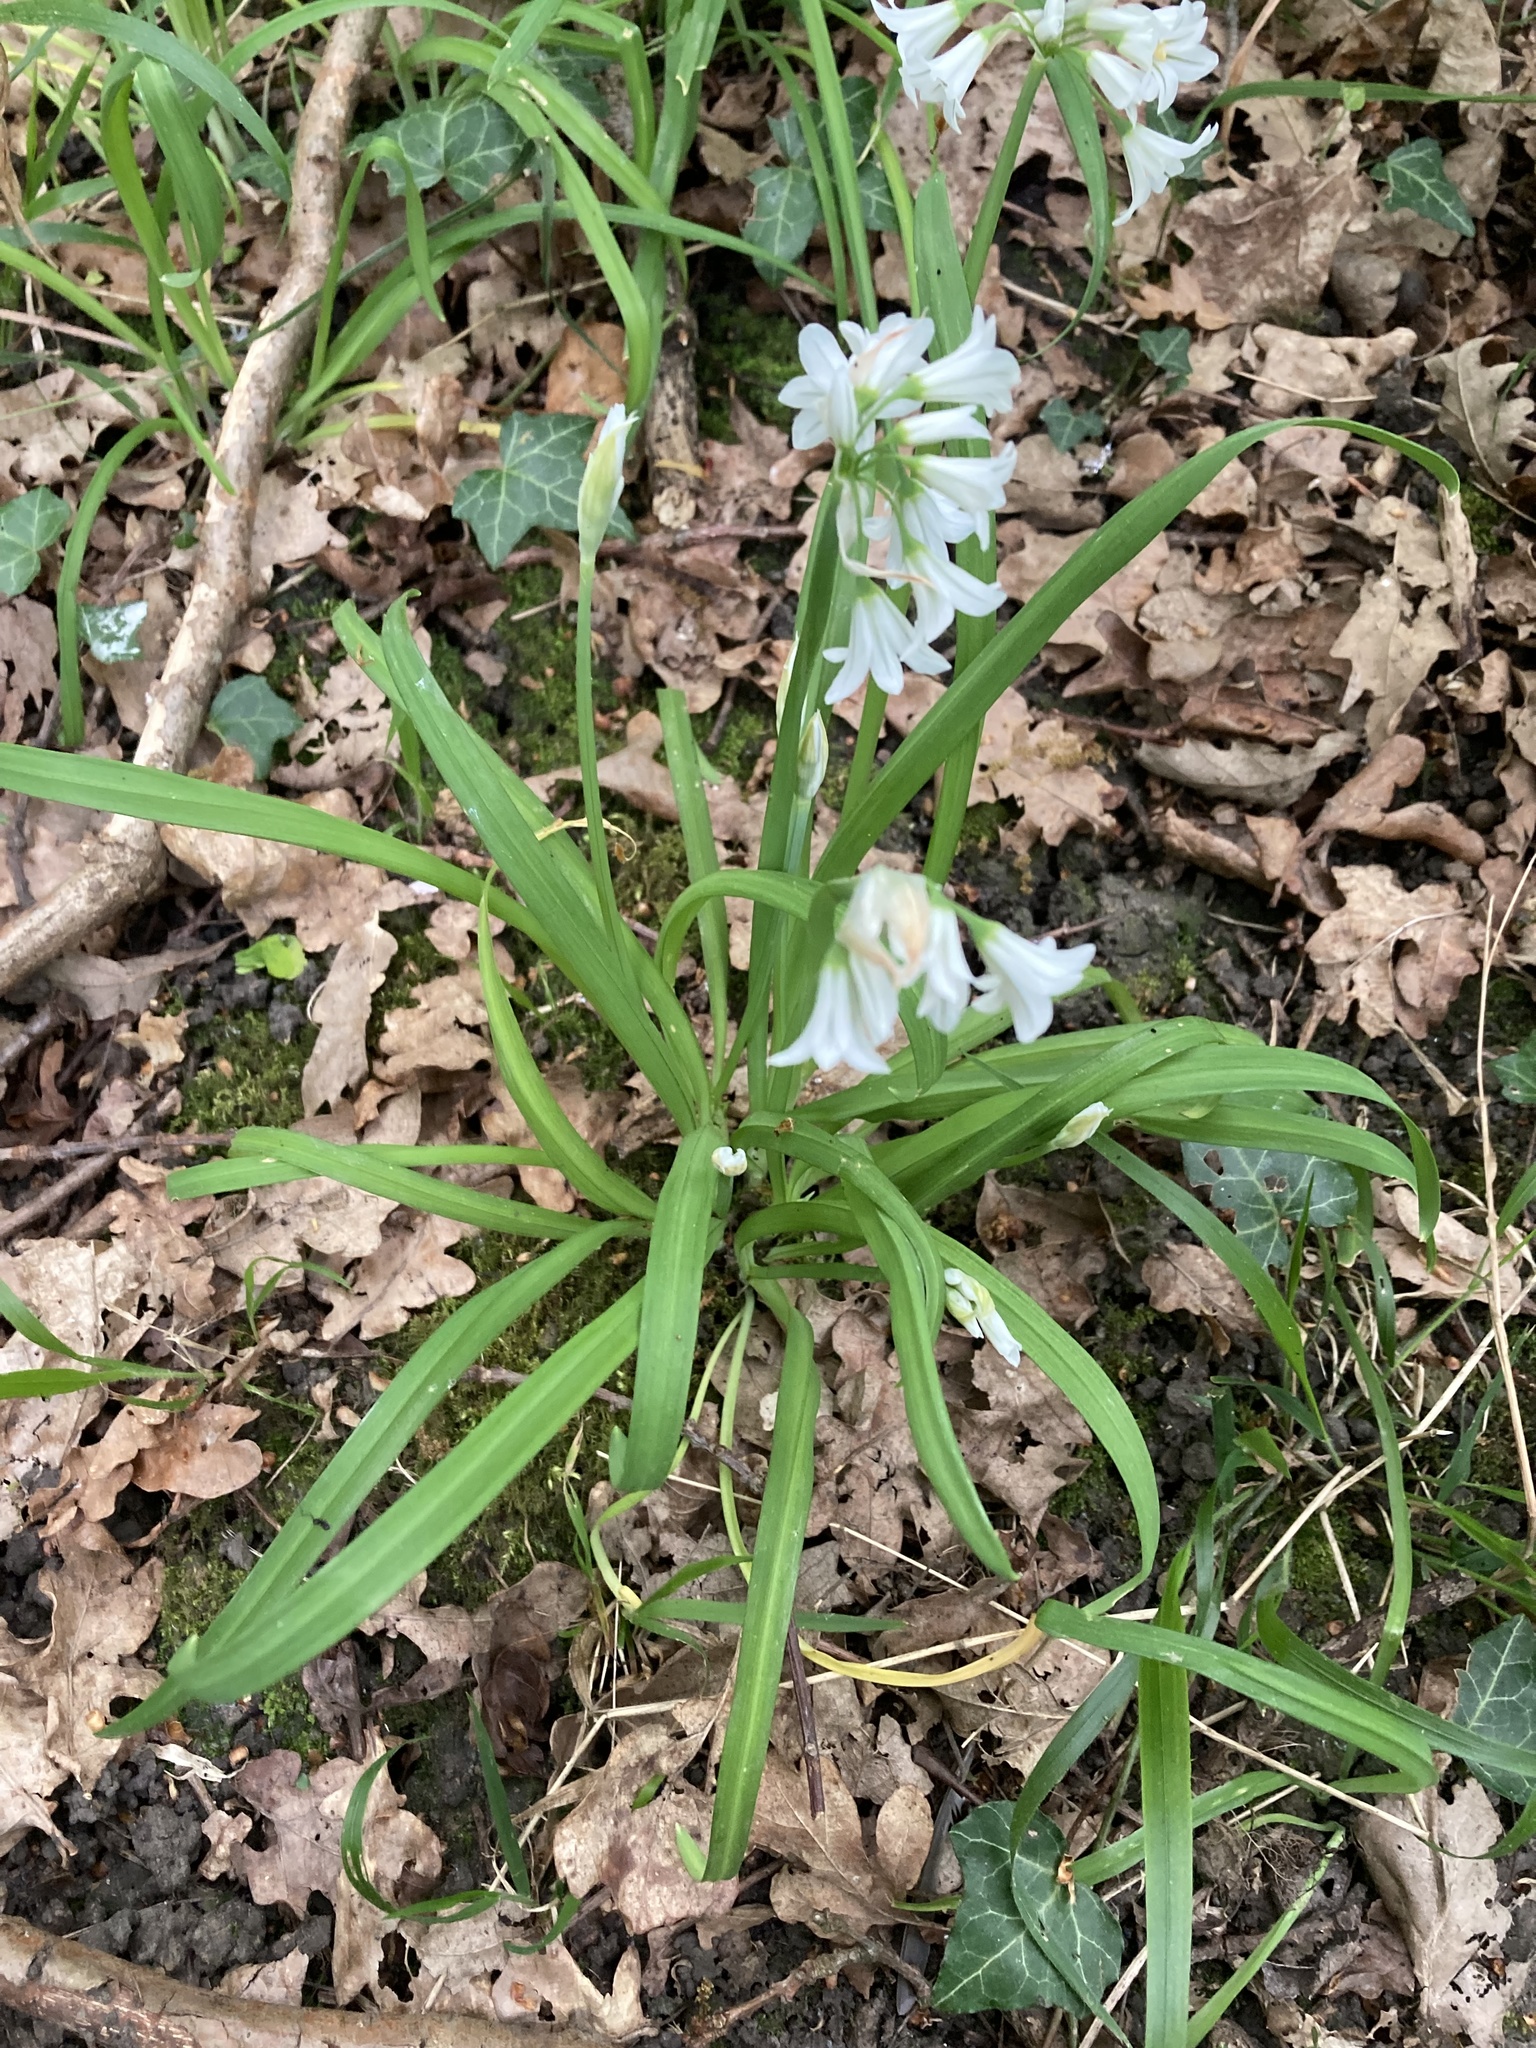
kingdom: Plantae
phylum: Tracheophyta
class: Liliopsida
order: Asparagales
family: Amaryllidaceae
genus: Allium
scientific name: Allium triquetrum
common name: Three-cornered garlic
